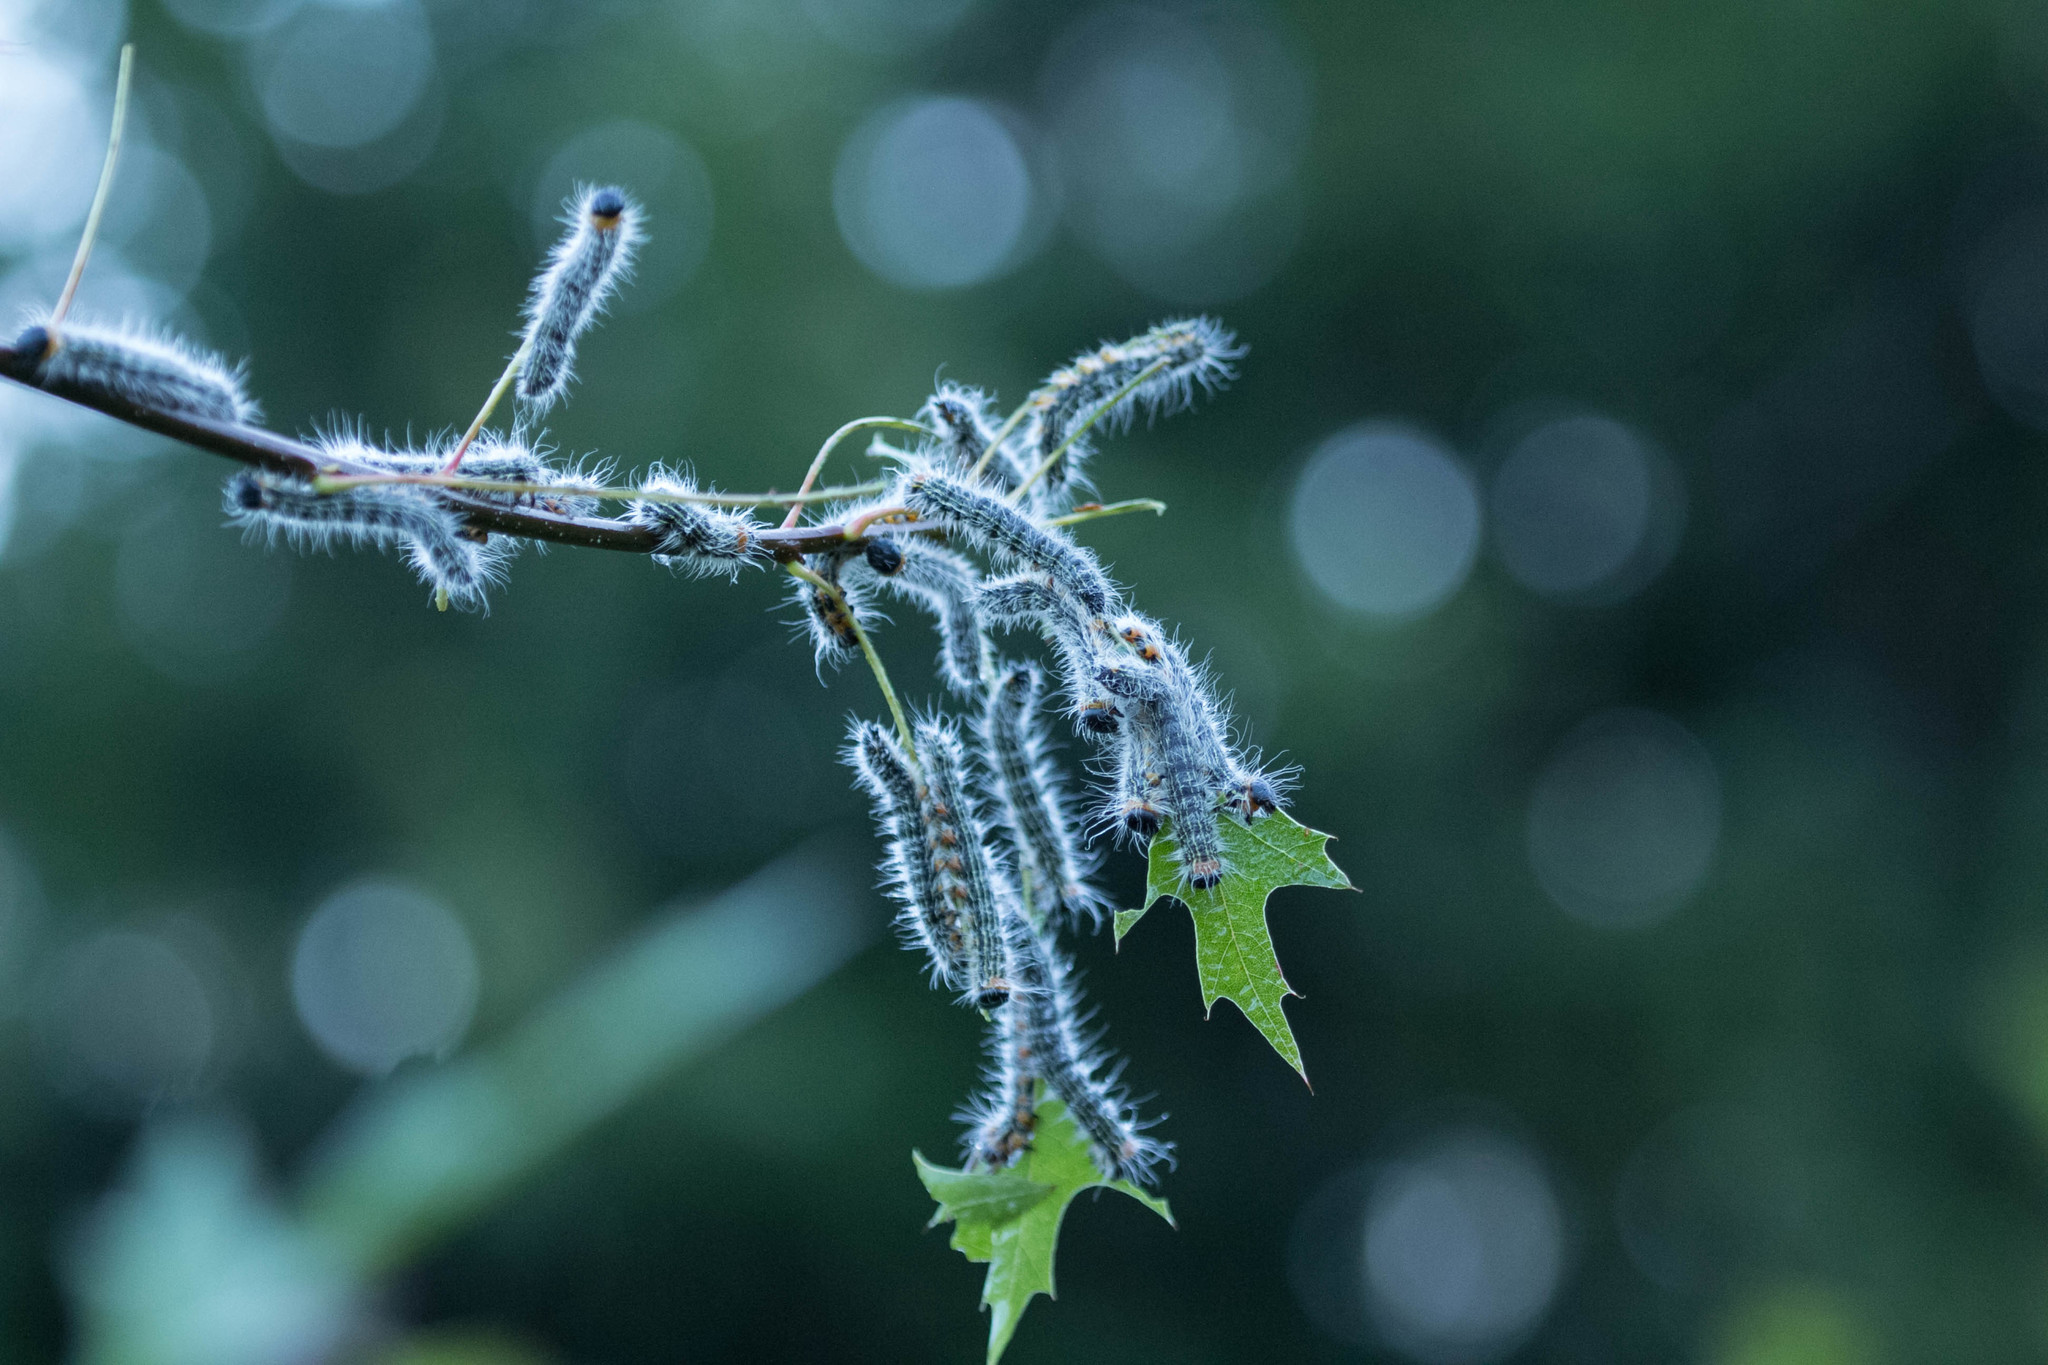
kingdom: Animalia
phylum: Arthropoda
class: Insecta
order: Lepidoptera
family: Notodontidae
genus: Datana
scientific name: Datana ministra
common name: Yellow-necked caterpillar moth
